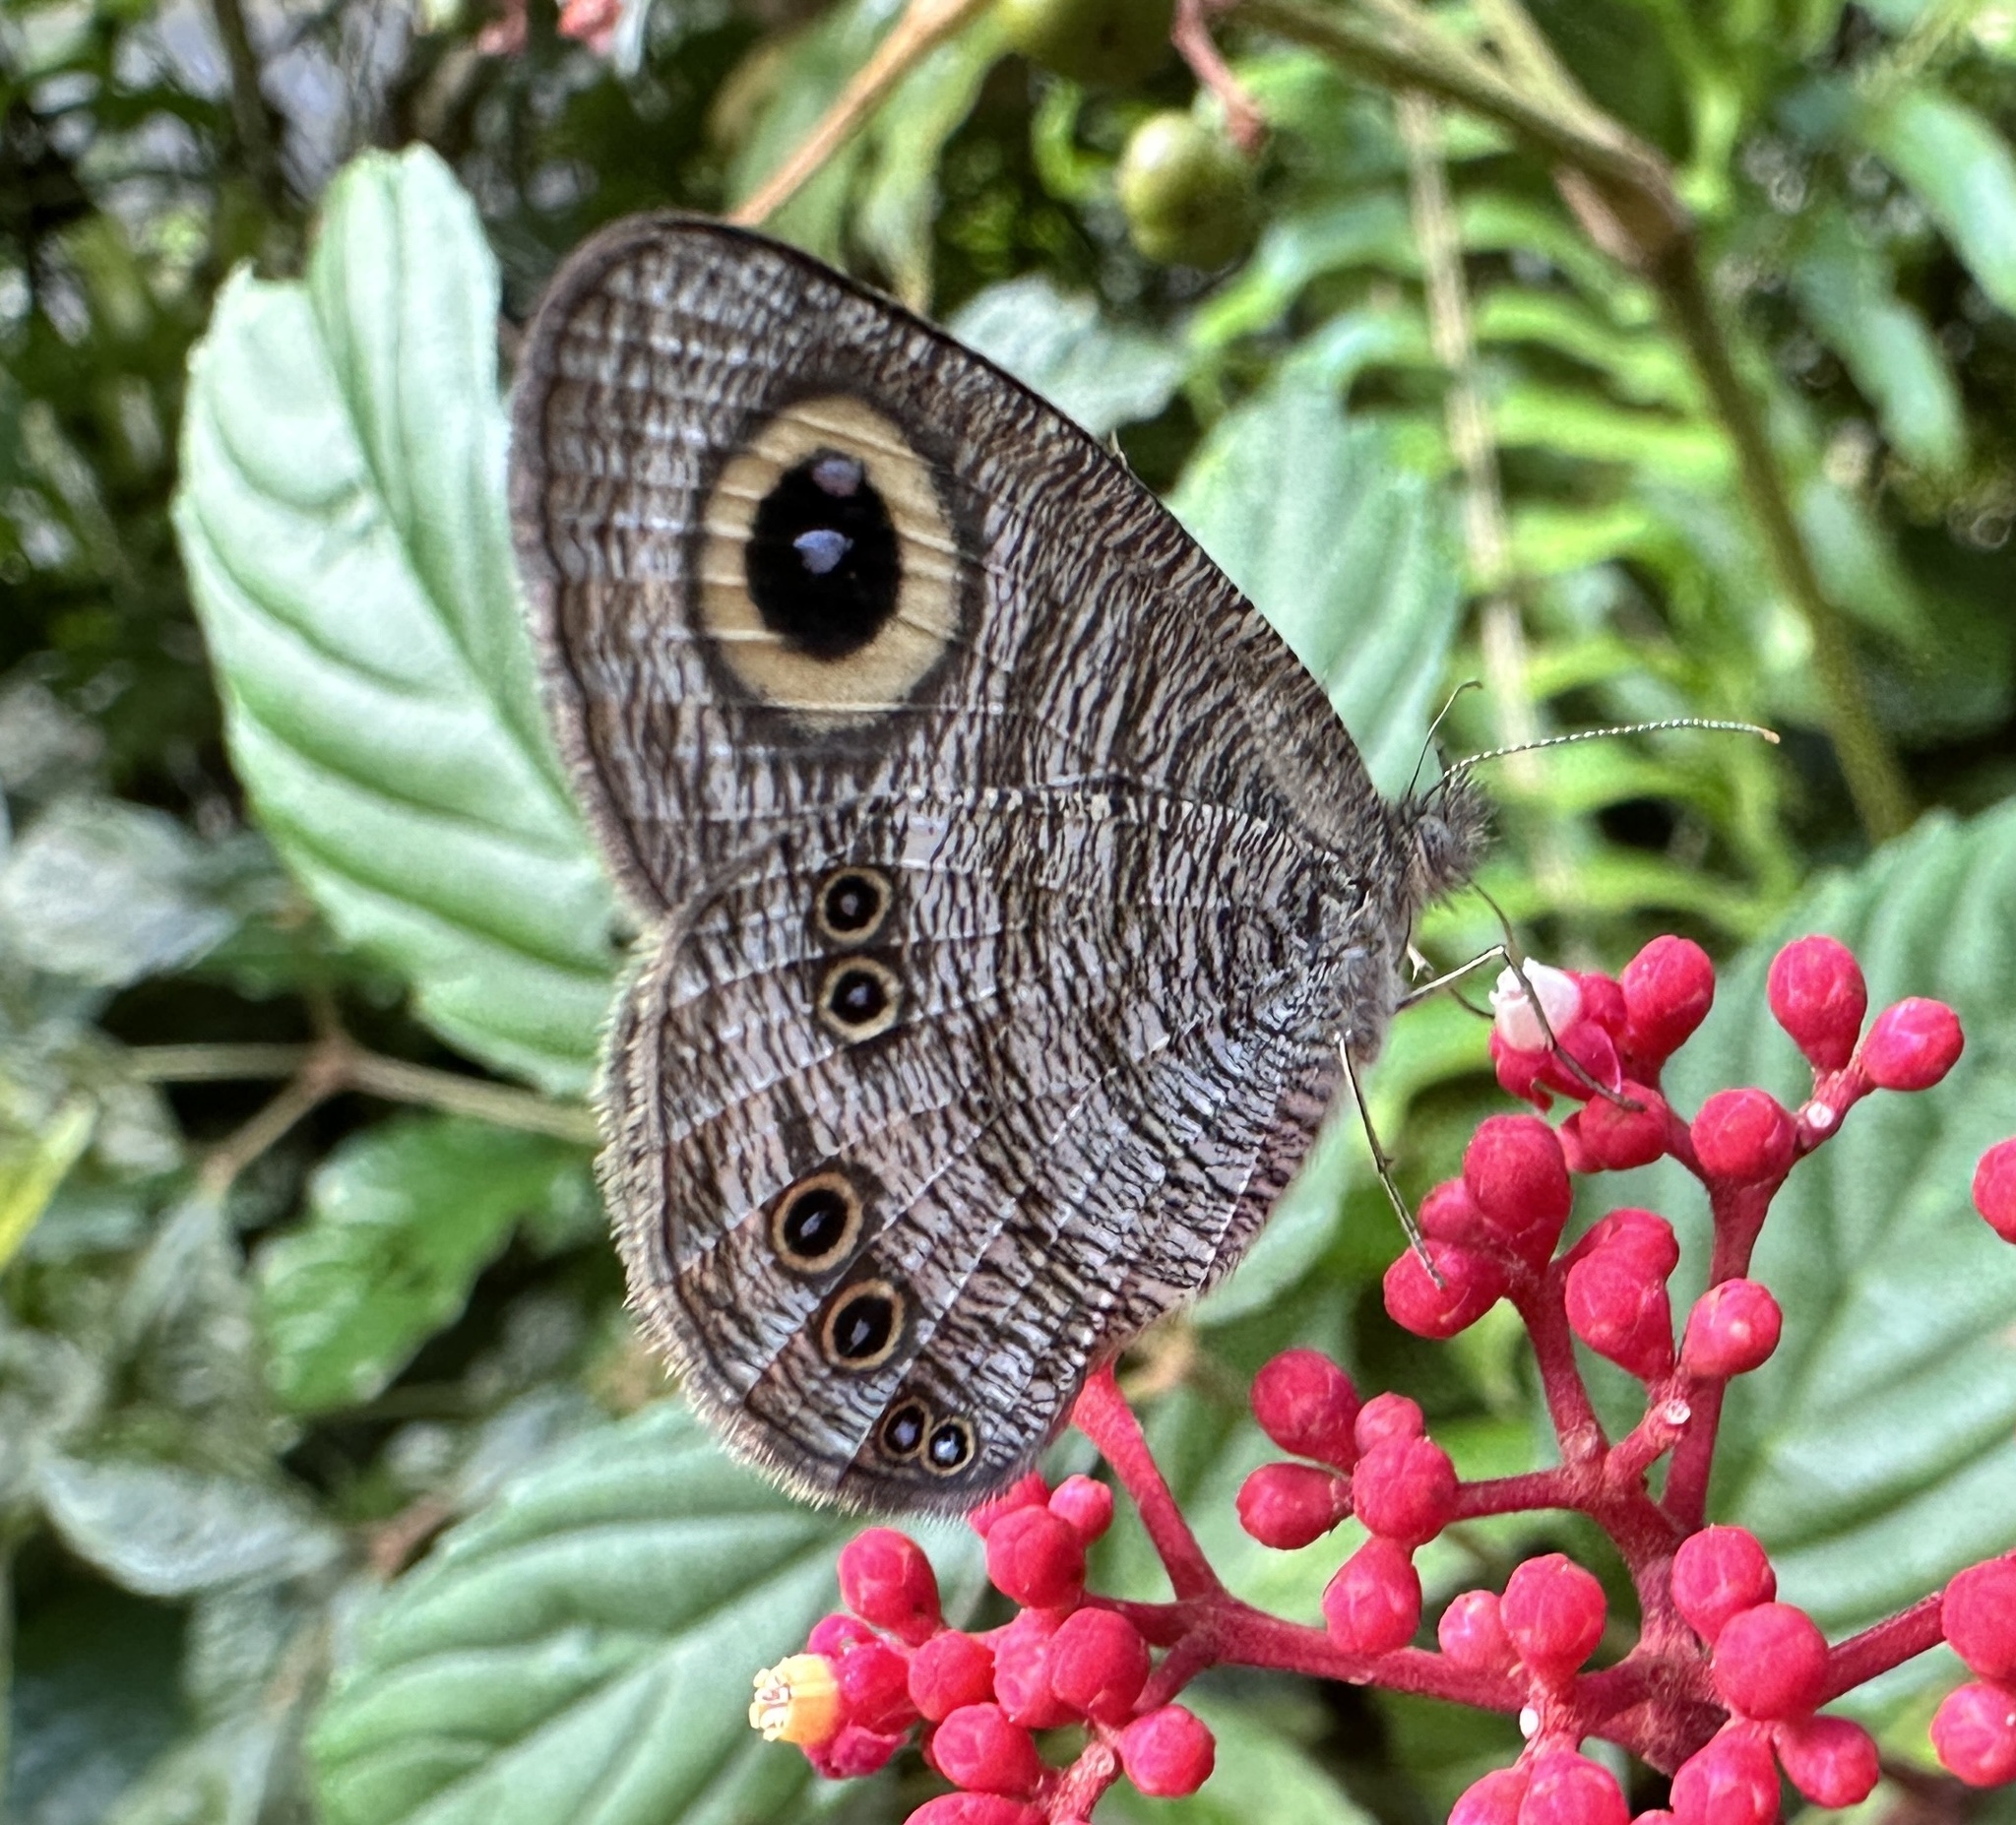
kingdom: Animalia
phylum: Arthropoda
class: Insecta
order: Lepidoptera
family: Nymphalidae
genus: Ypthima
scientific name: Ypthima baldus
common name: Common five-ring
